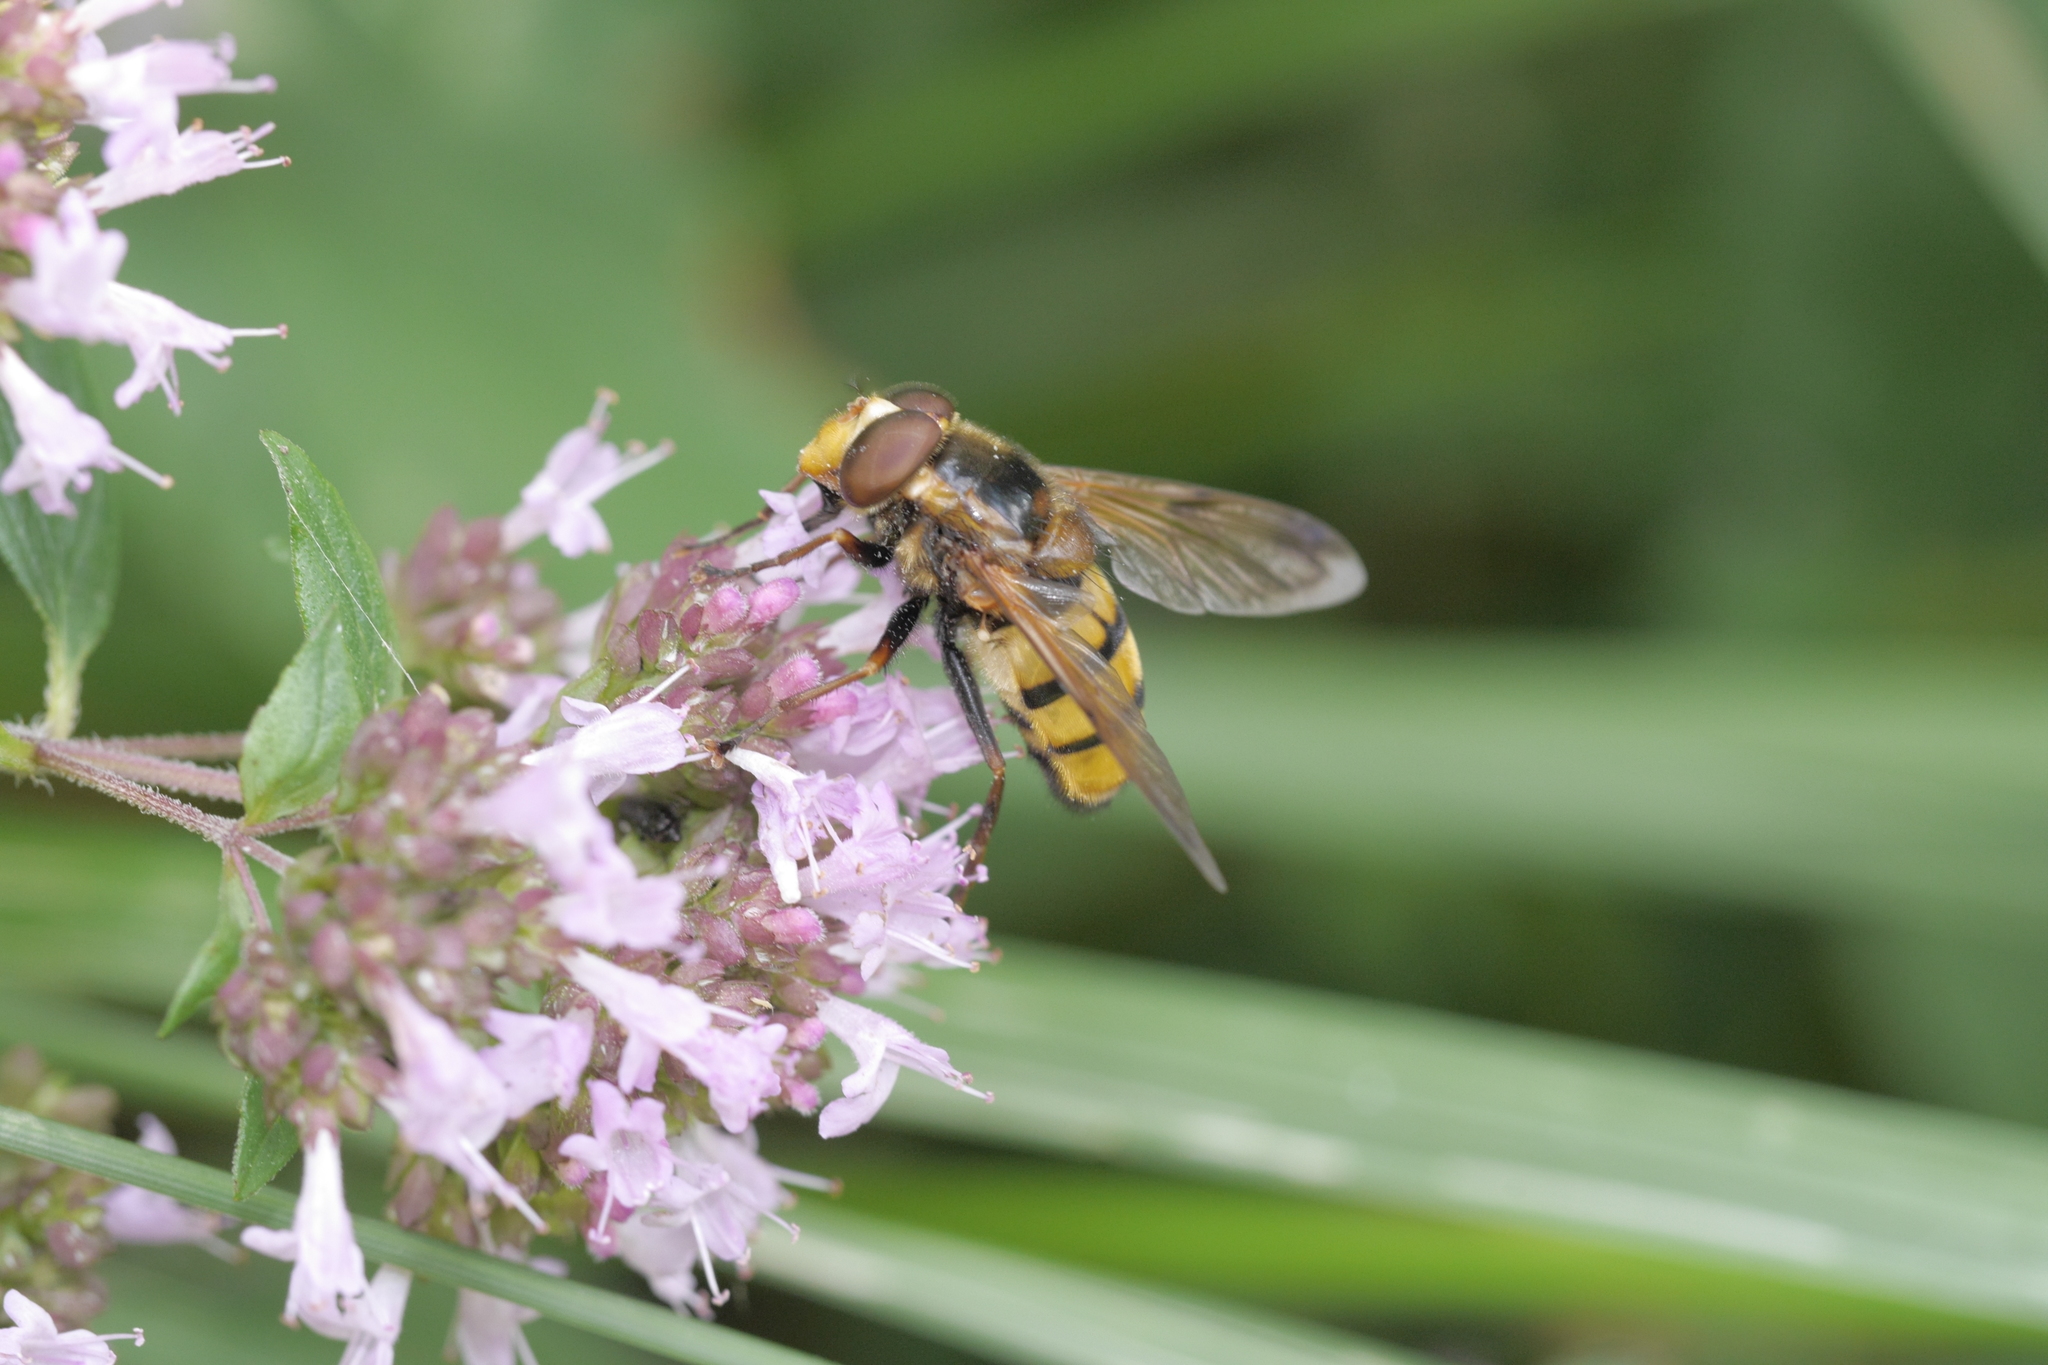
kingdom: Animalia
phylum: Arthropoda
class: Insecta
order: Diptera
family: Syrphidae
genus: Volucella
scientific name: Volucella inanis
